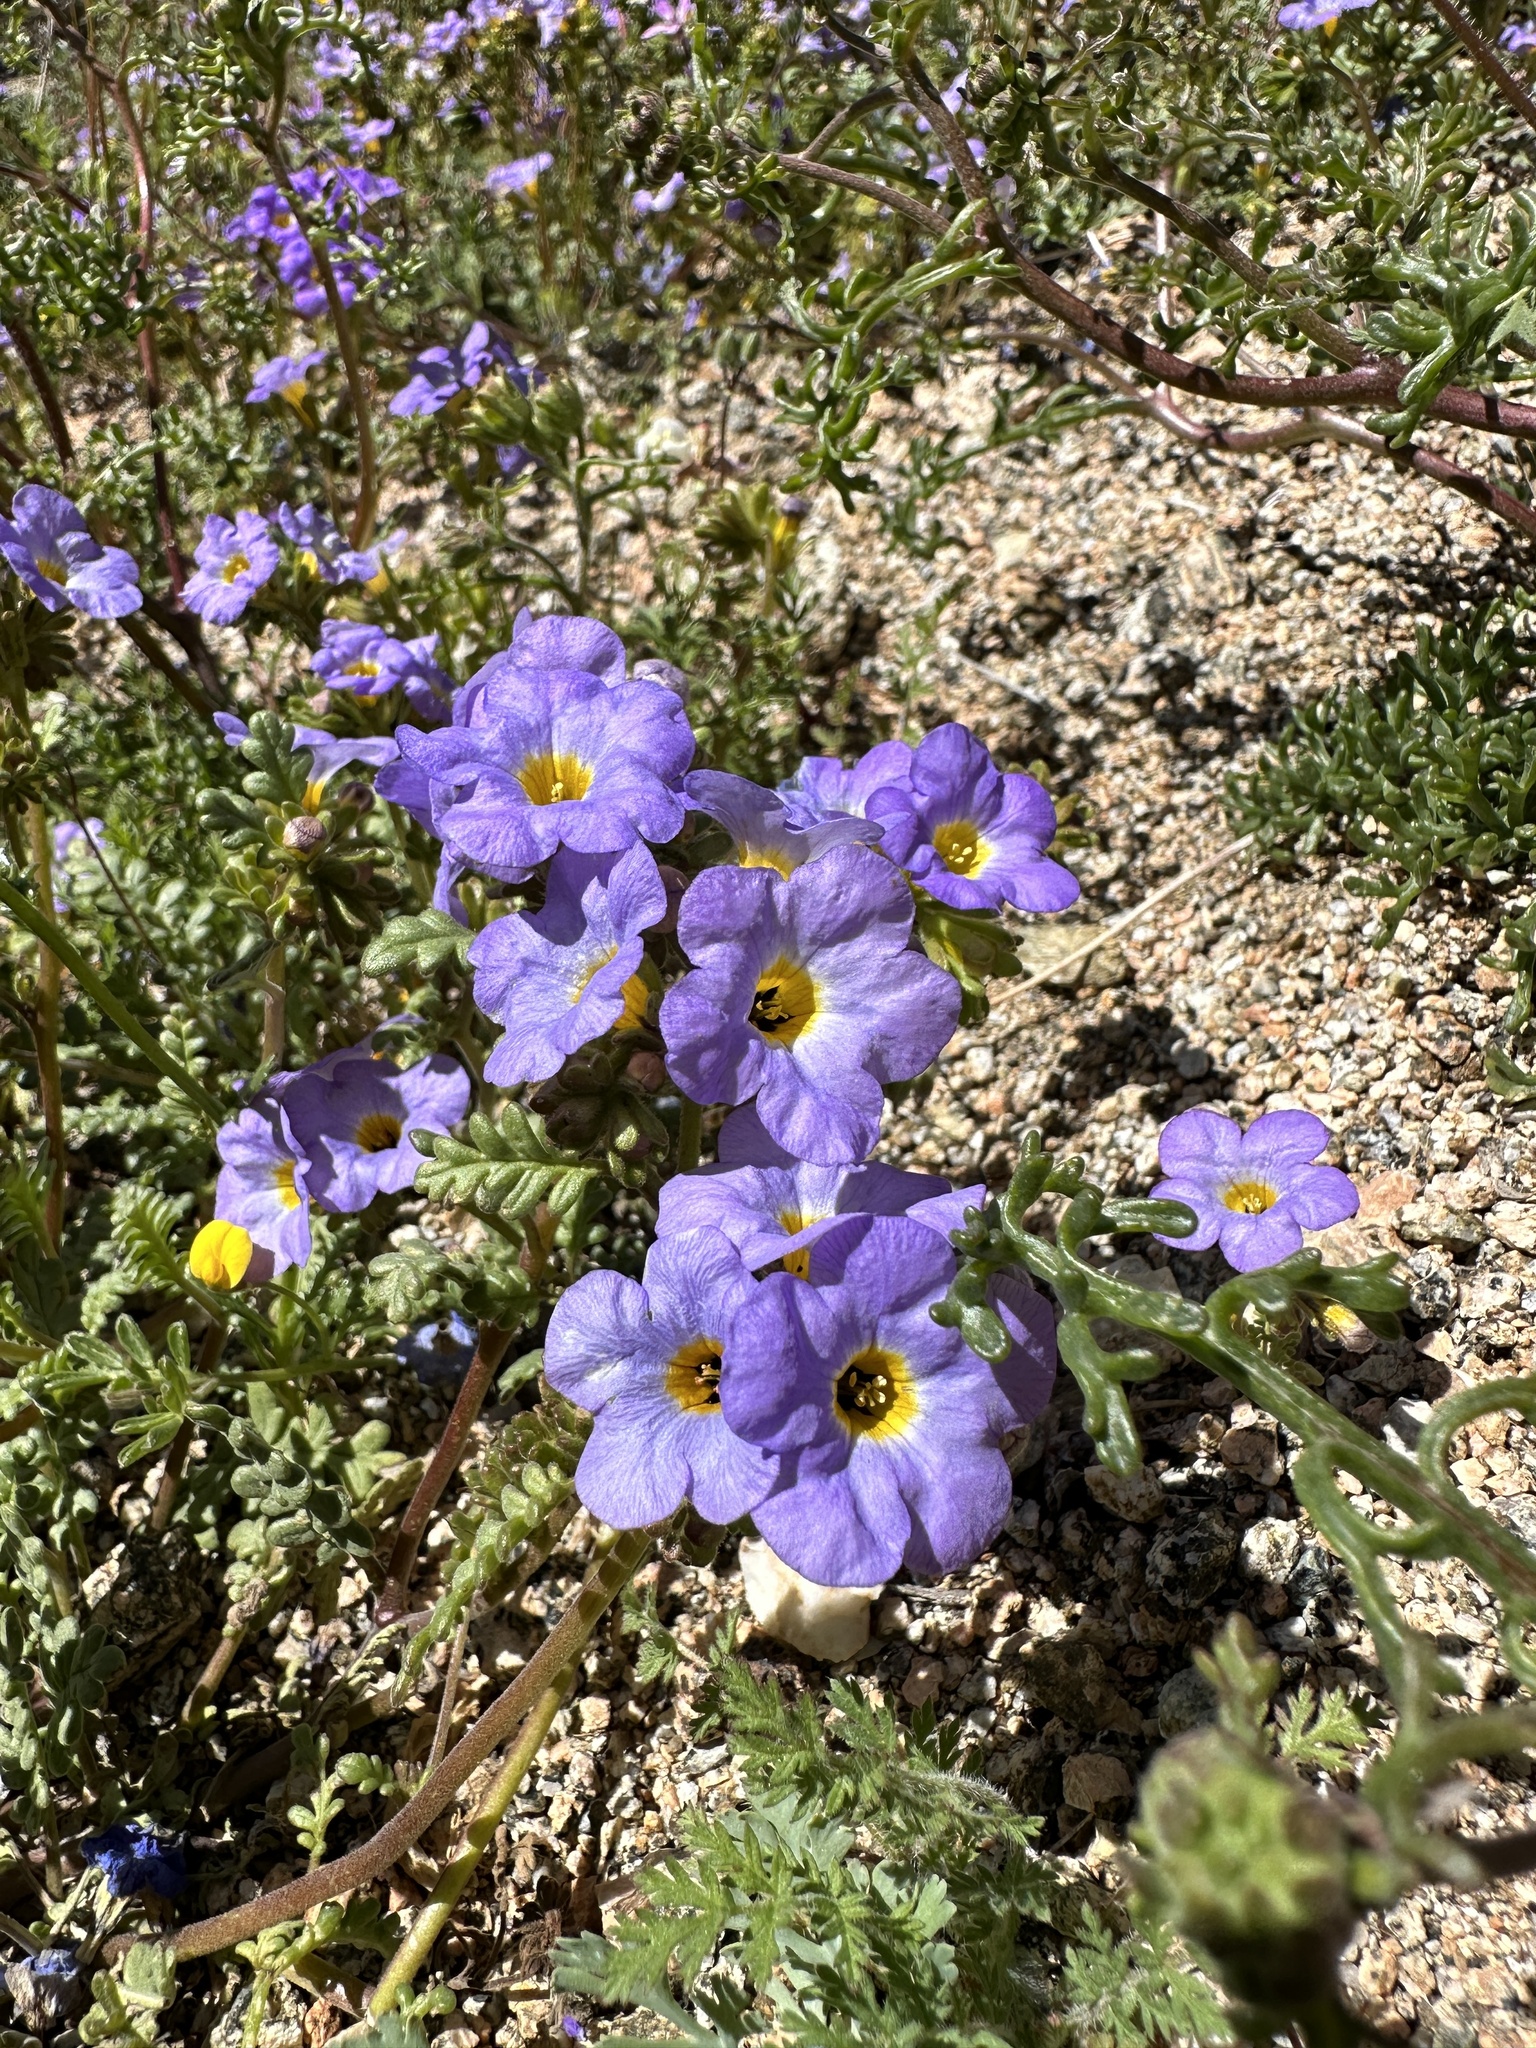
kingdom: Plantae
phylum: Tracheophyta
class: Magnoliopsida
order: Boraginales
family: Hydrophyllaceae
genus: Phacelia
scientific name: Phacelia fremontii
